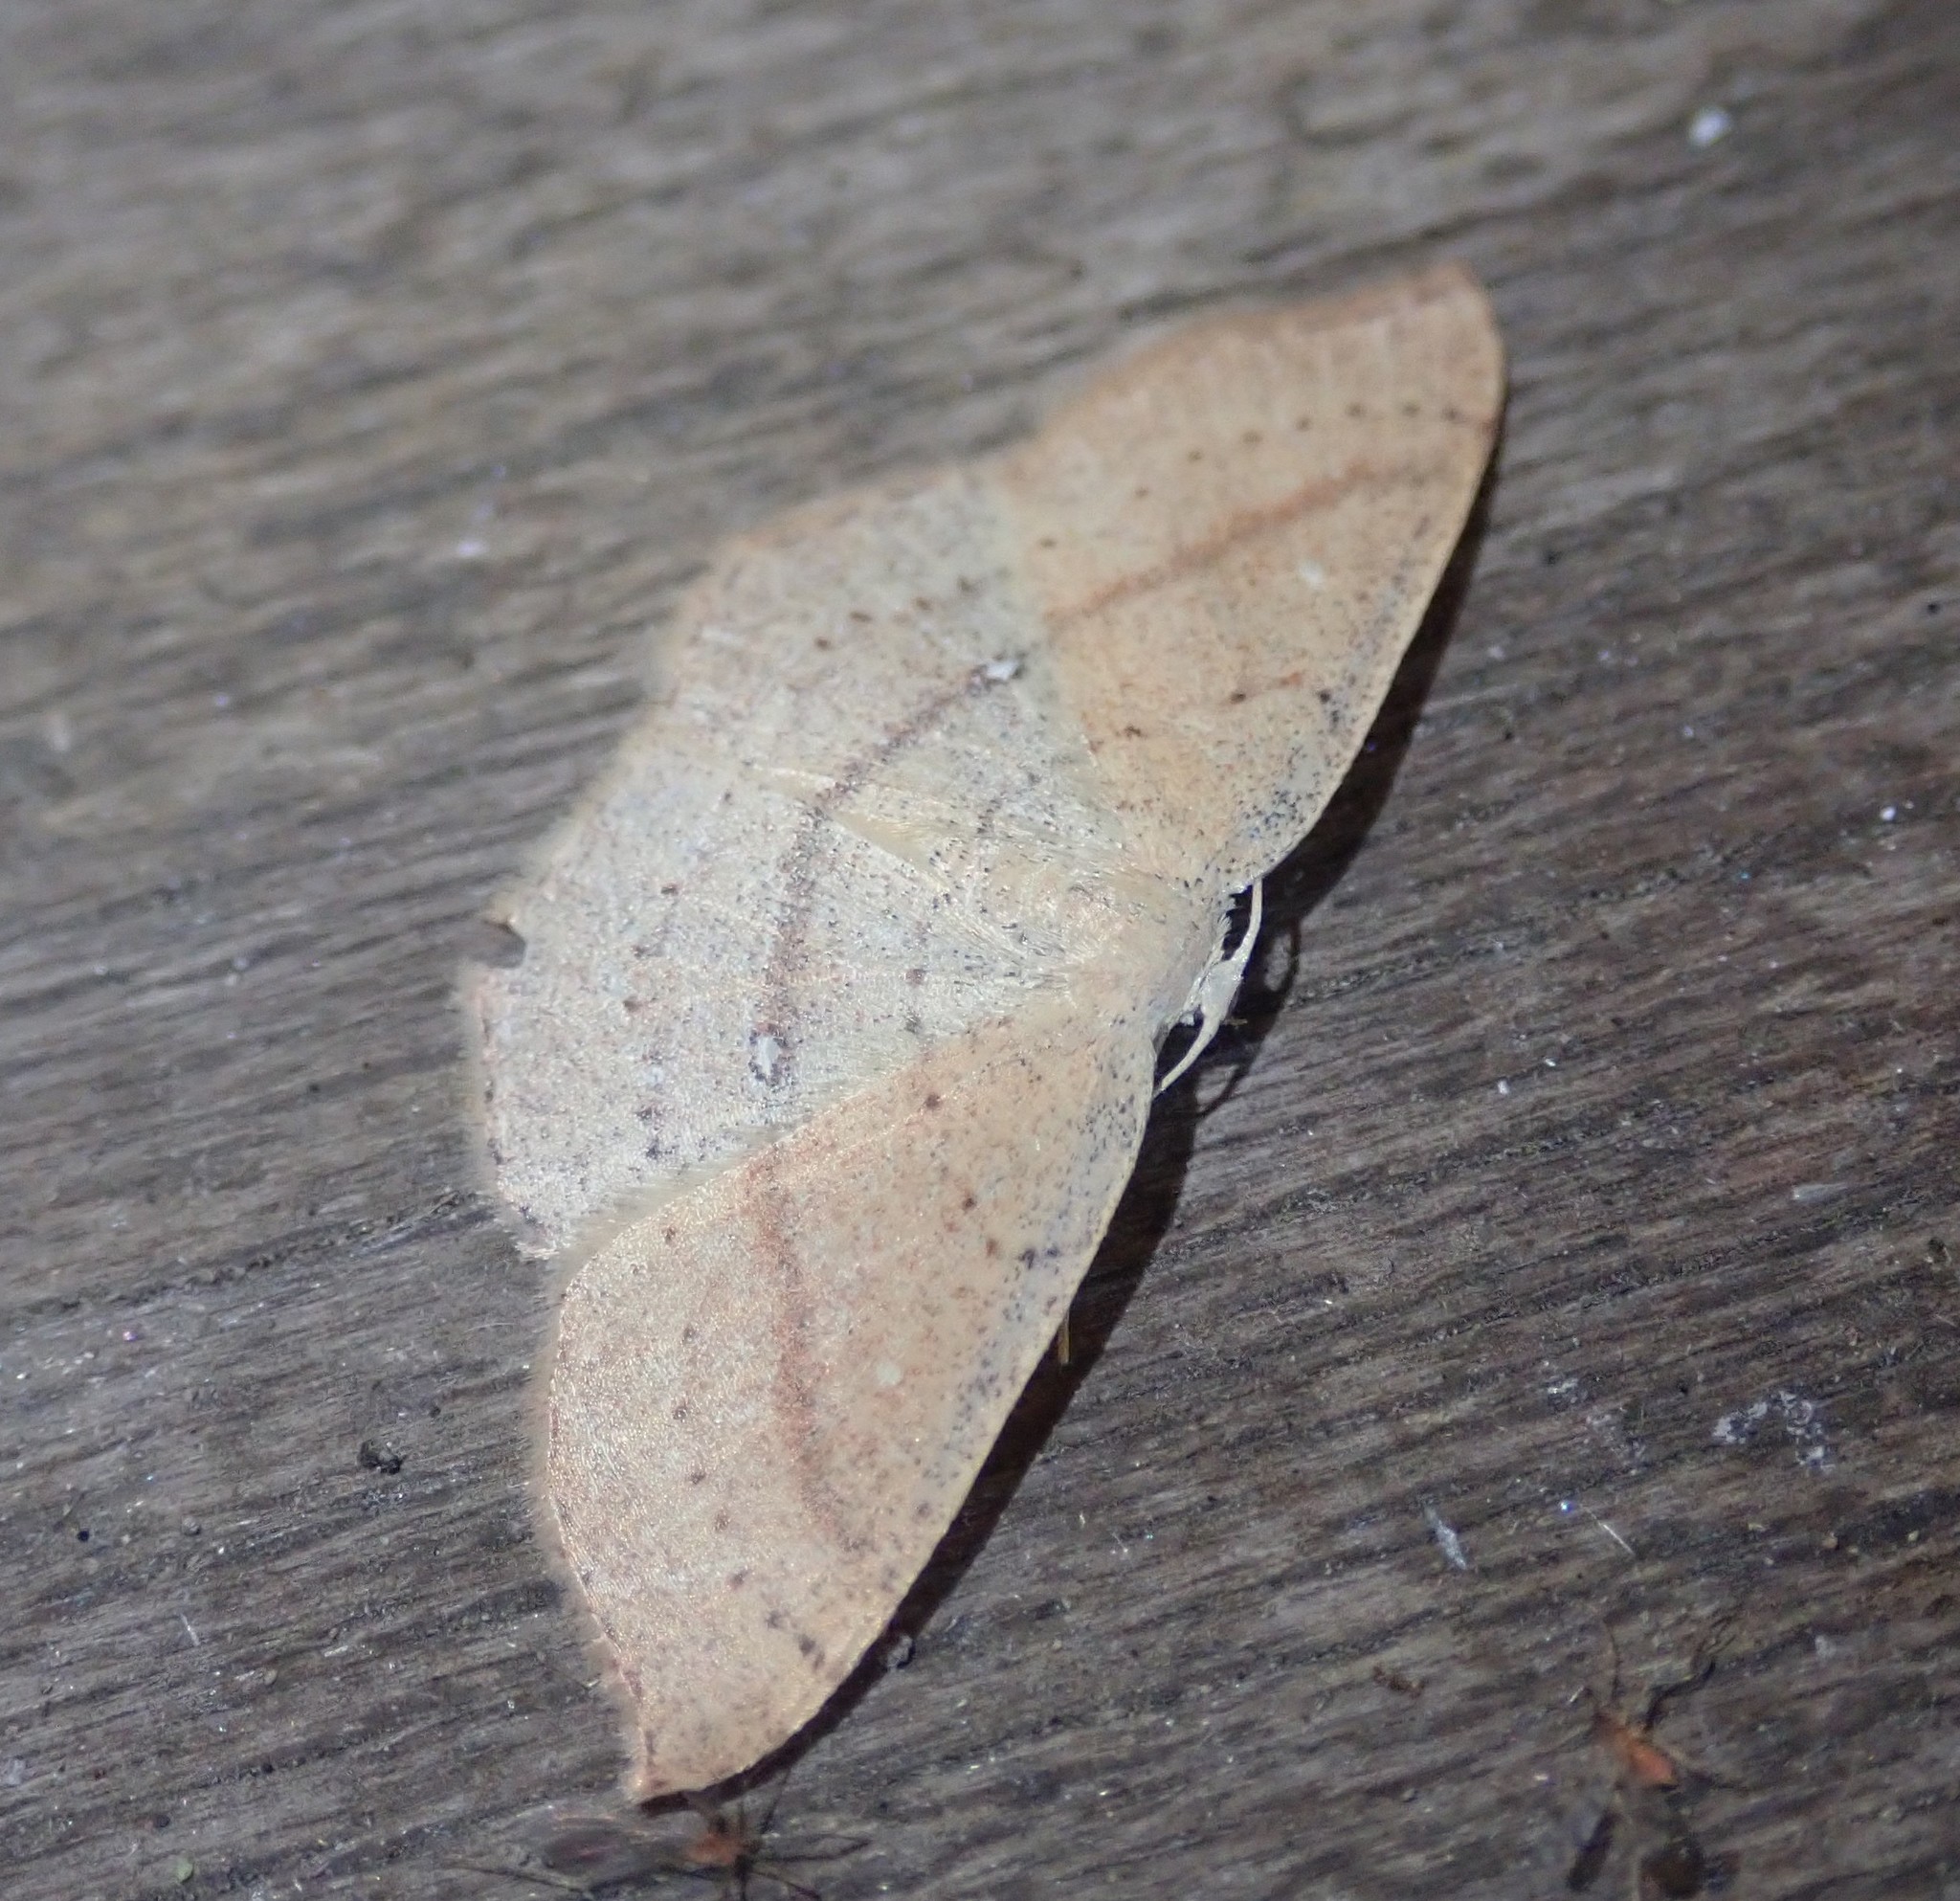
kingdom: Animalia
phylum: Arthropoda
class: Insecta
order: Lepidoptera
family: Geometridae
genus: Cyclophora
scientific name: Cyclophora linearia
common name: Clay triple-lines
